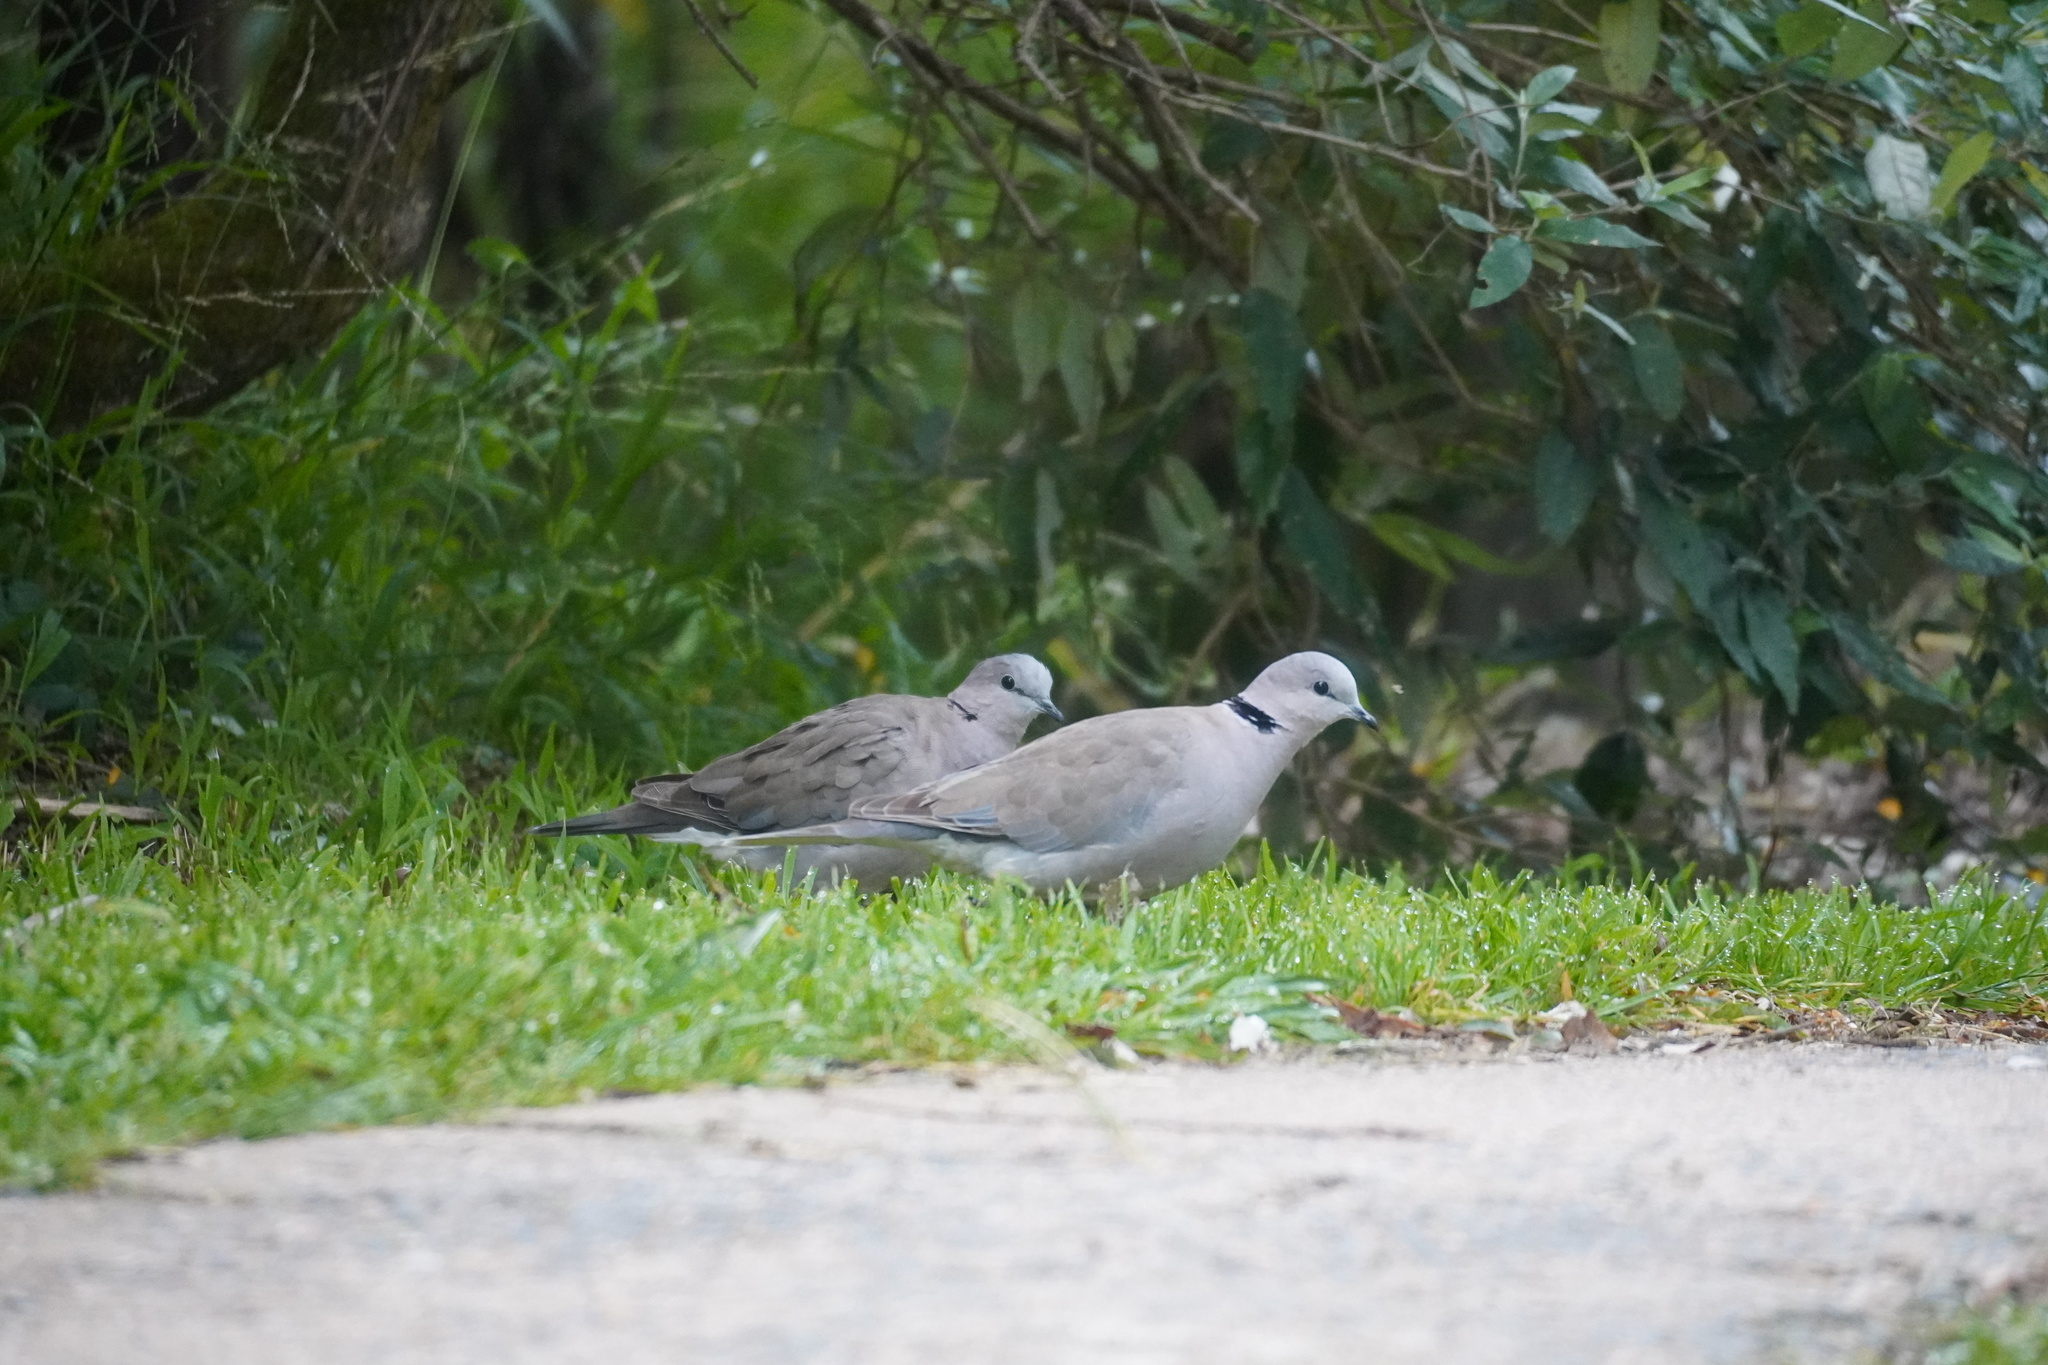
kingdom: Animalia
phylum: Chordata
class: Aves
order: Columbiformes
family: Columbidae
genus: Streptopelia
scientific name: Streptopelia capicola
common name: Ring-necked dove
